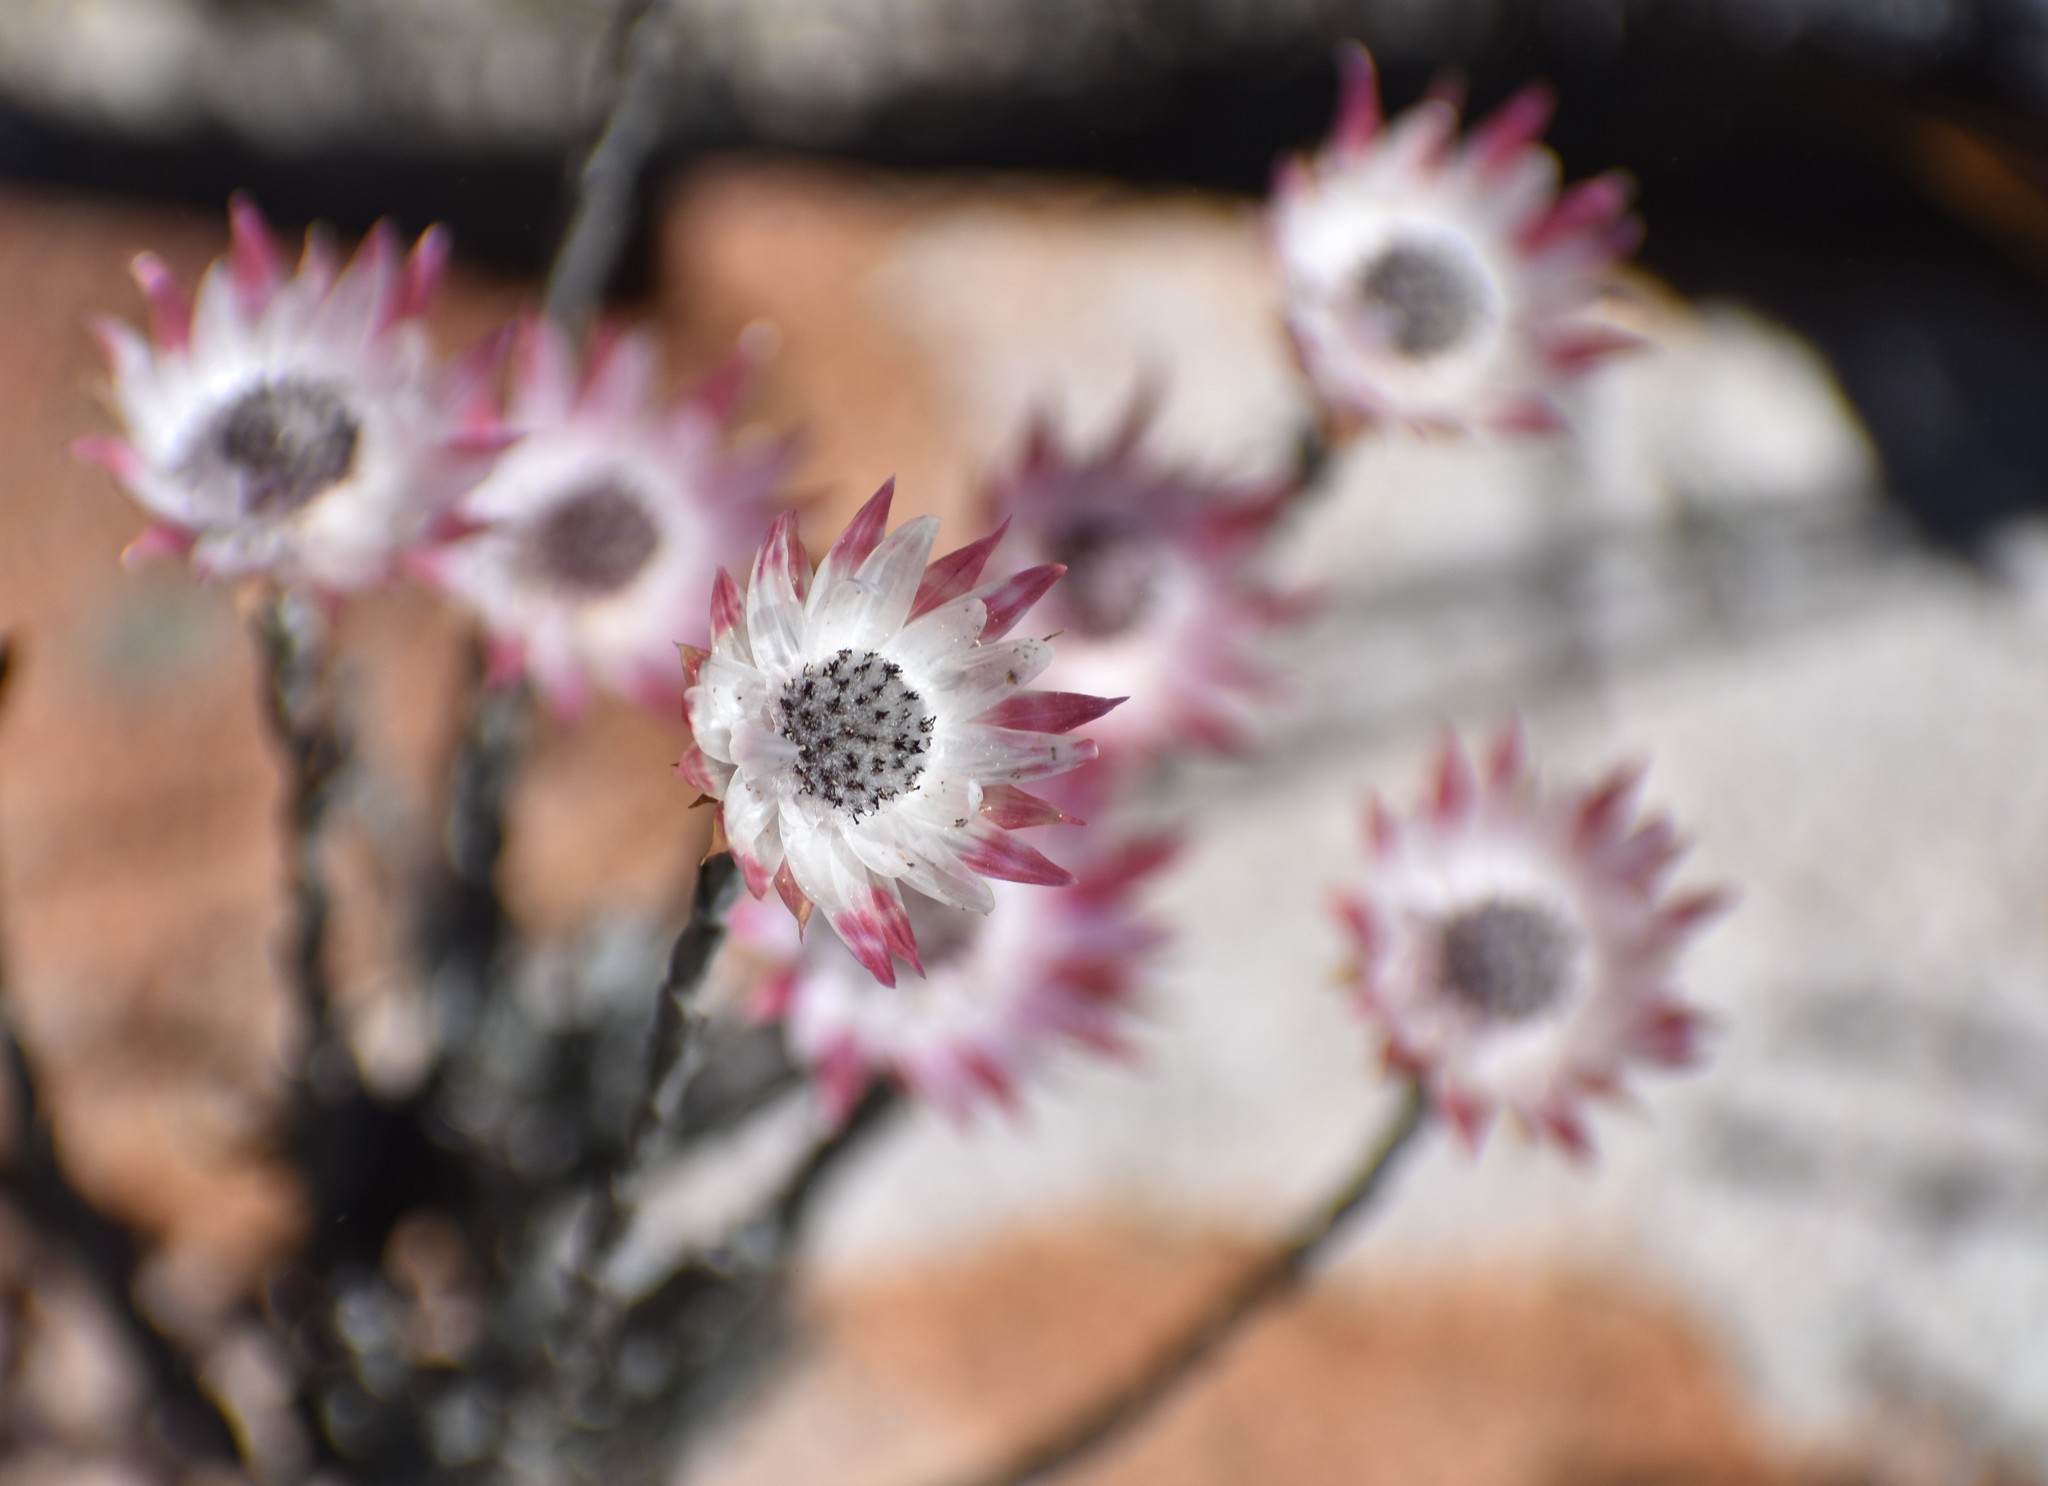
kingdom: Plantae
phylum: Tracheophyta
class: Magnoliopsida
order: Asterales
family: Asteraceae
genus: Syncarpha
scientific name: Syncarpha canescens
